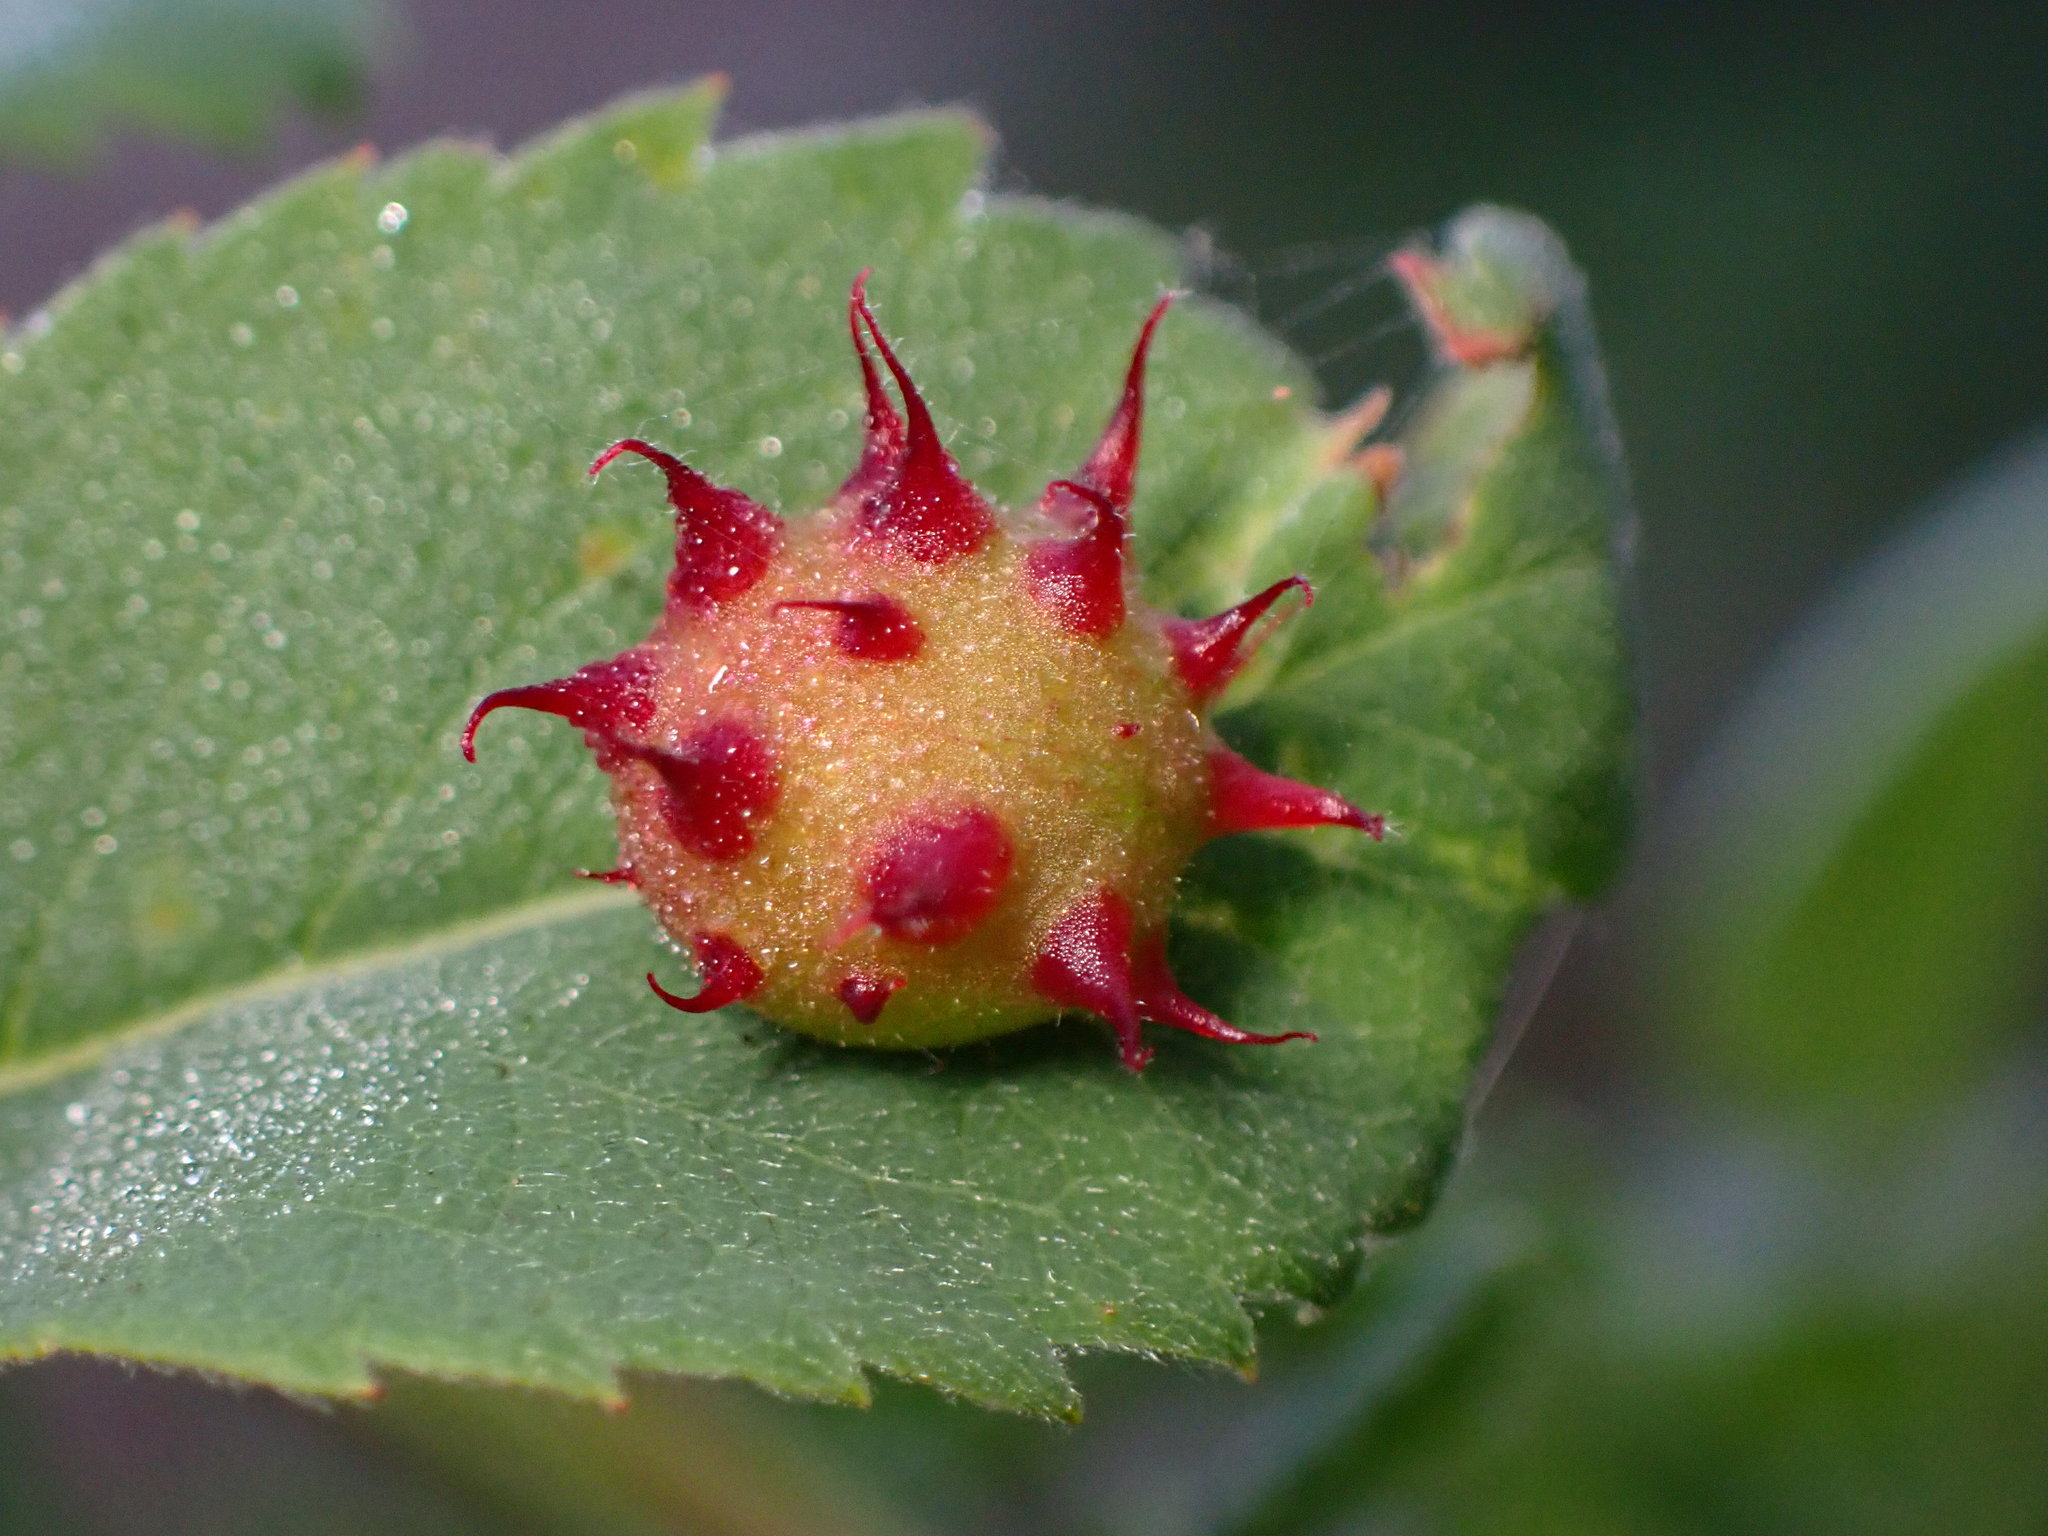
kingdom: Animalia
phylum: Arthropoda
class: Insecta
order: Hymenoptera
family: Cynipidae
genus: Diplolepis
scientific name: Diplolepis polita
